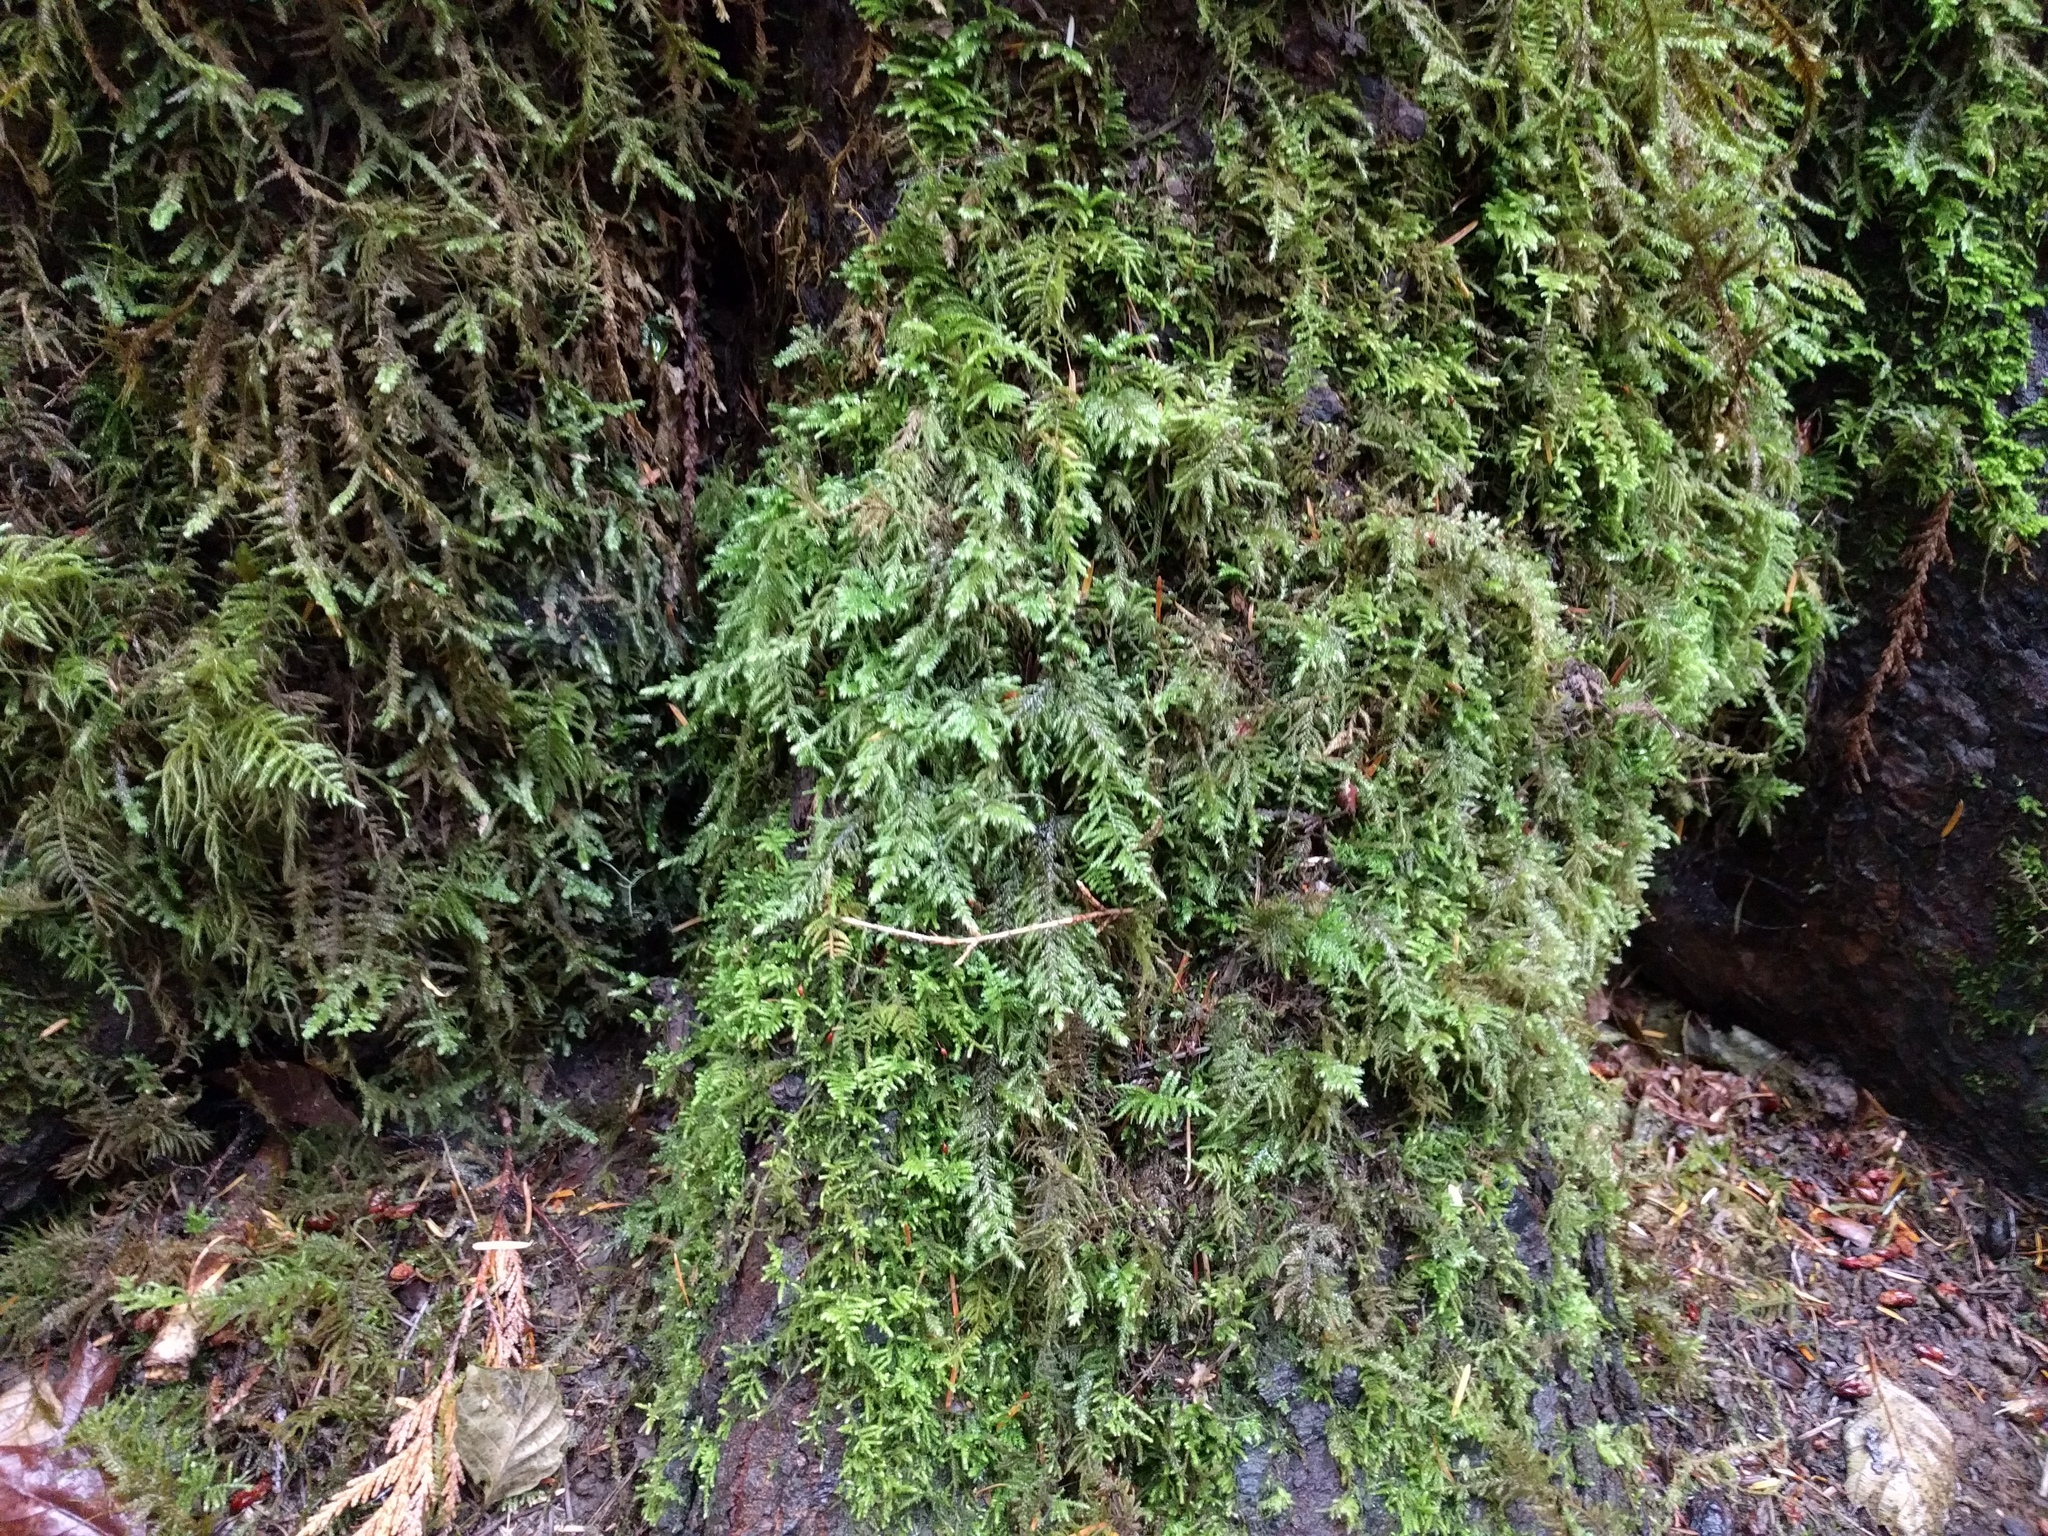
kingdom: Plantae
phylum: Bryophyta
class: Bryopsida
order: Hypnales
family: Brachytheciaceae
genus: Kindbergia
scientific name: Kindbergia oregana
